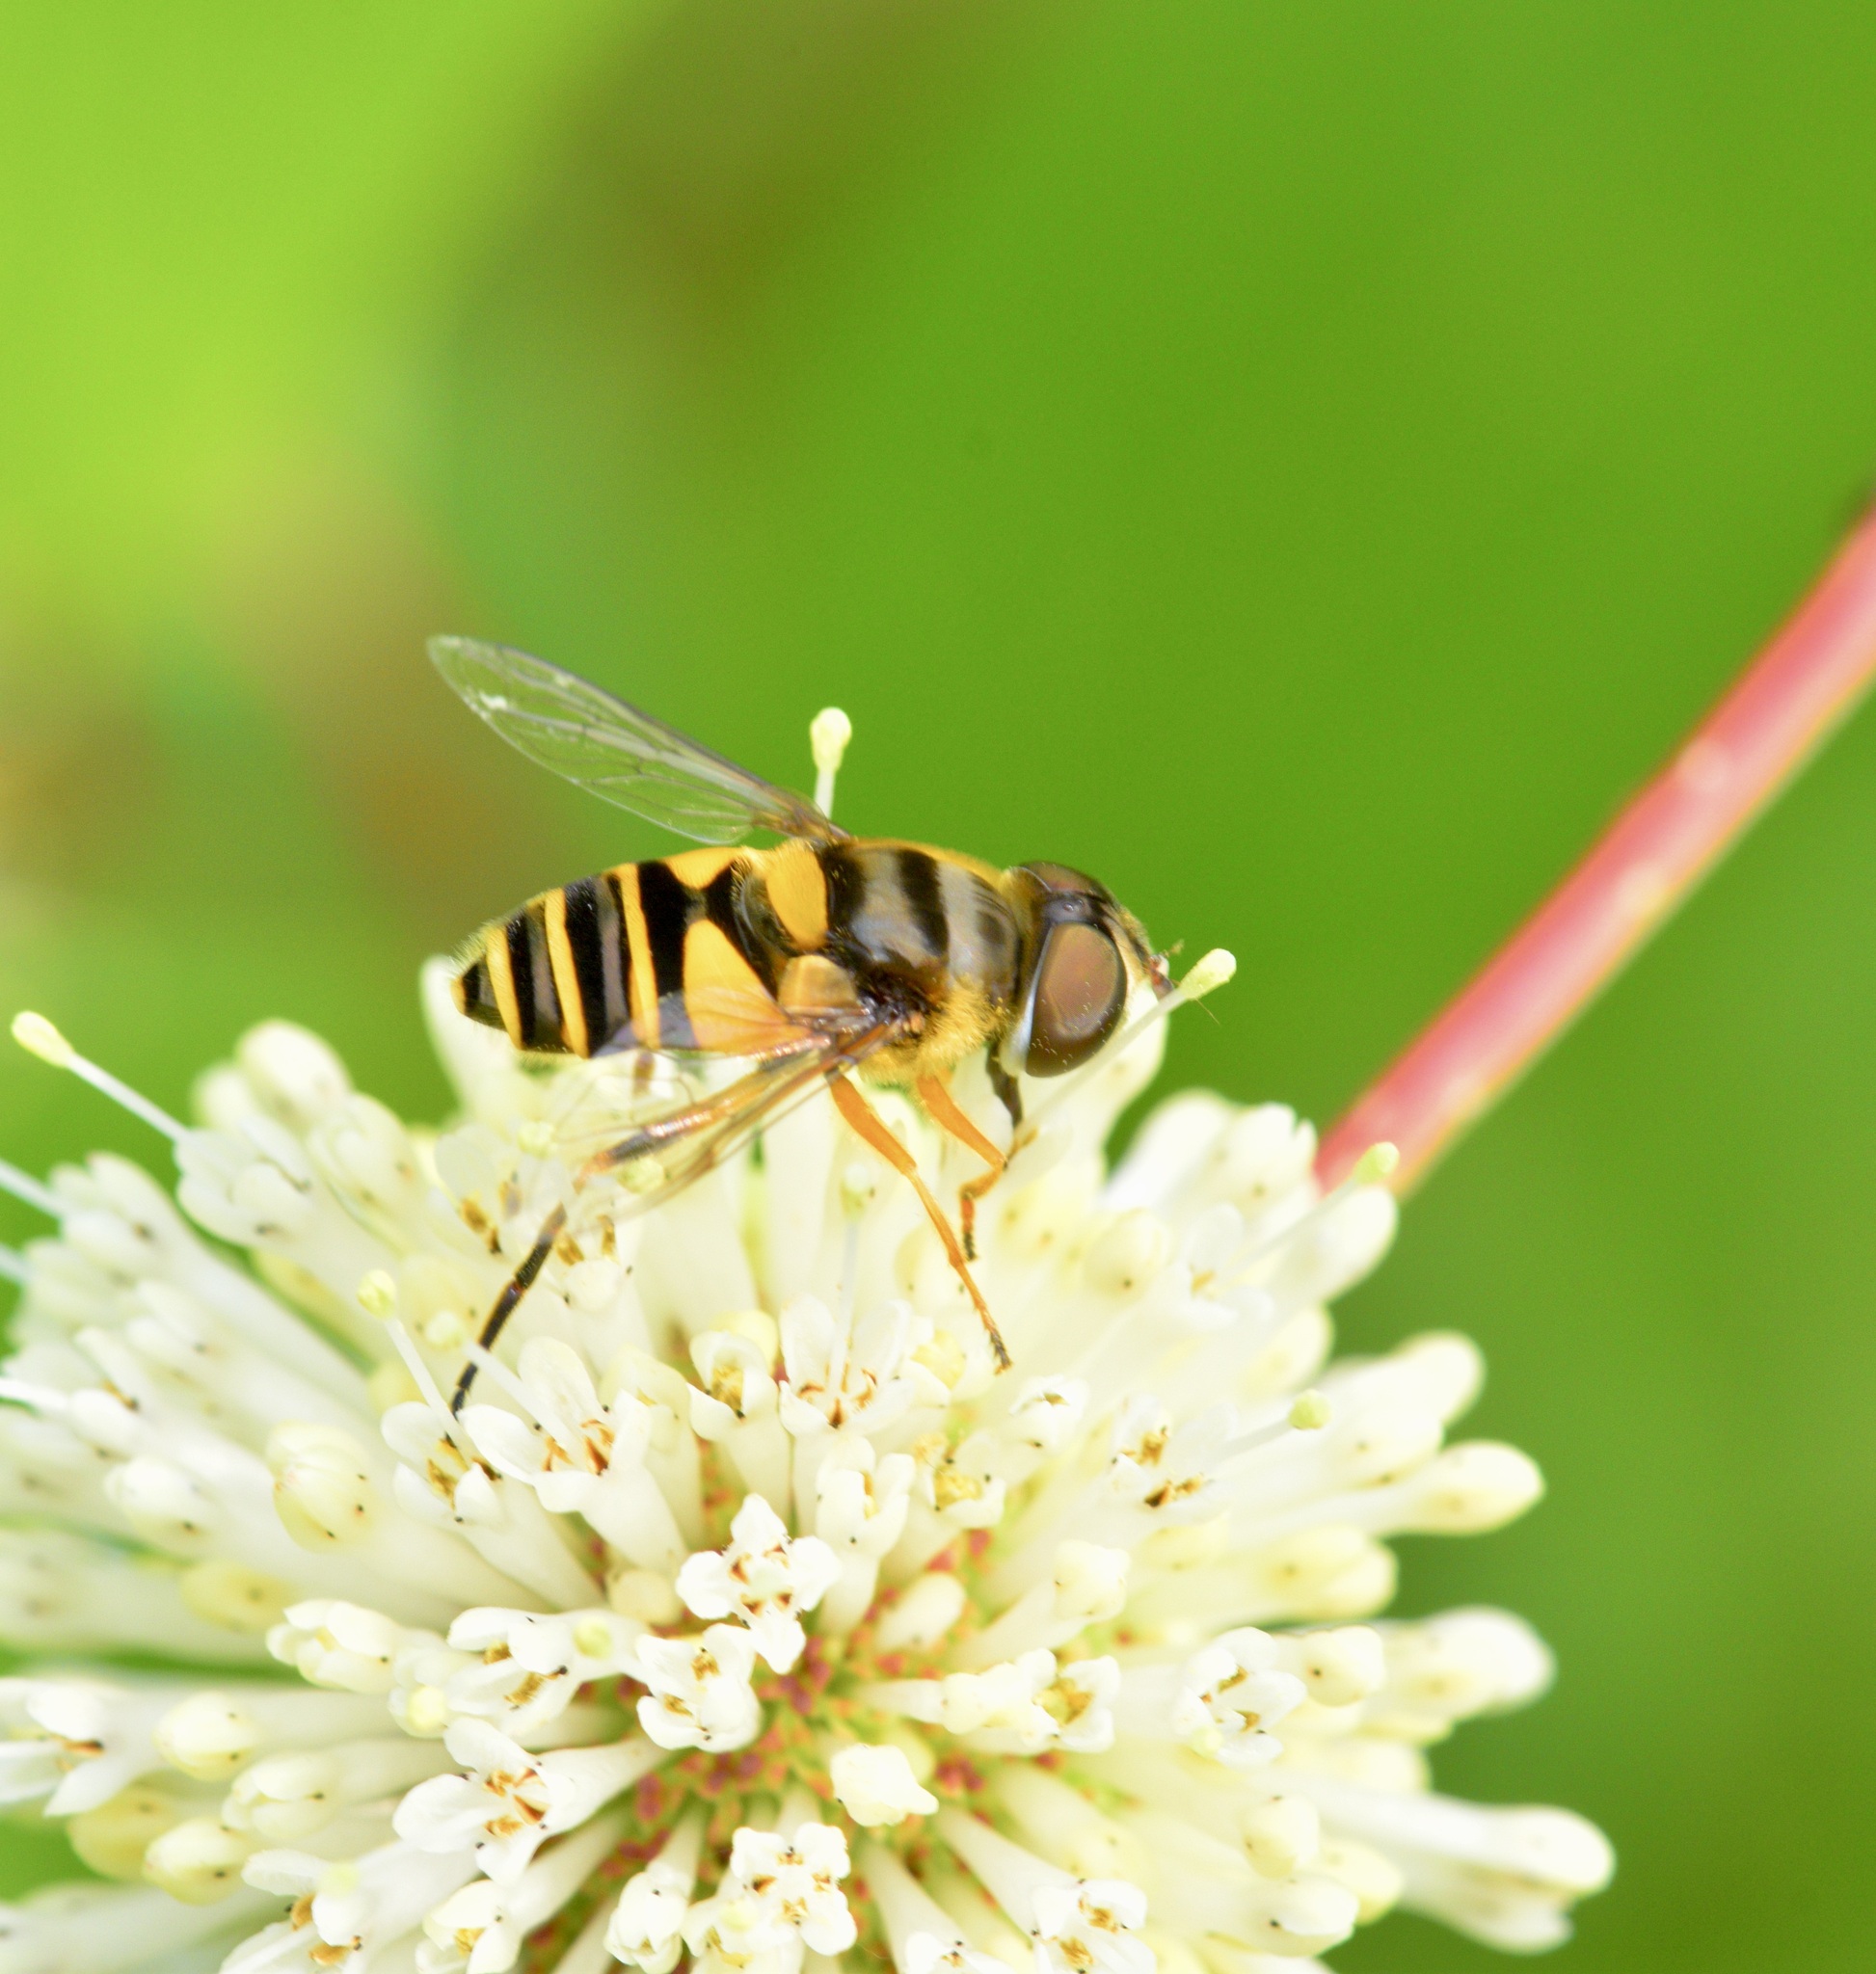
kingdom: Animalia
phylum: Arthropoda
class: Insecta
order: Diptera
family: Syrphidae
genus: Eristalis
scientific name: Eristalis transversa
